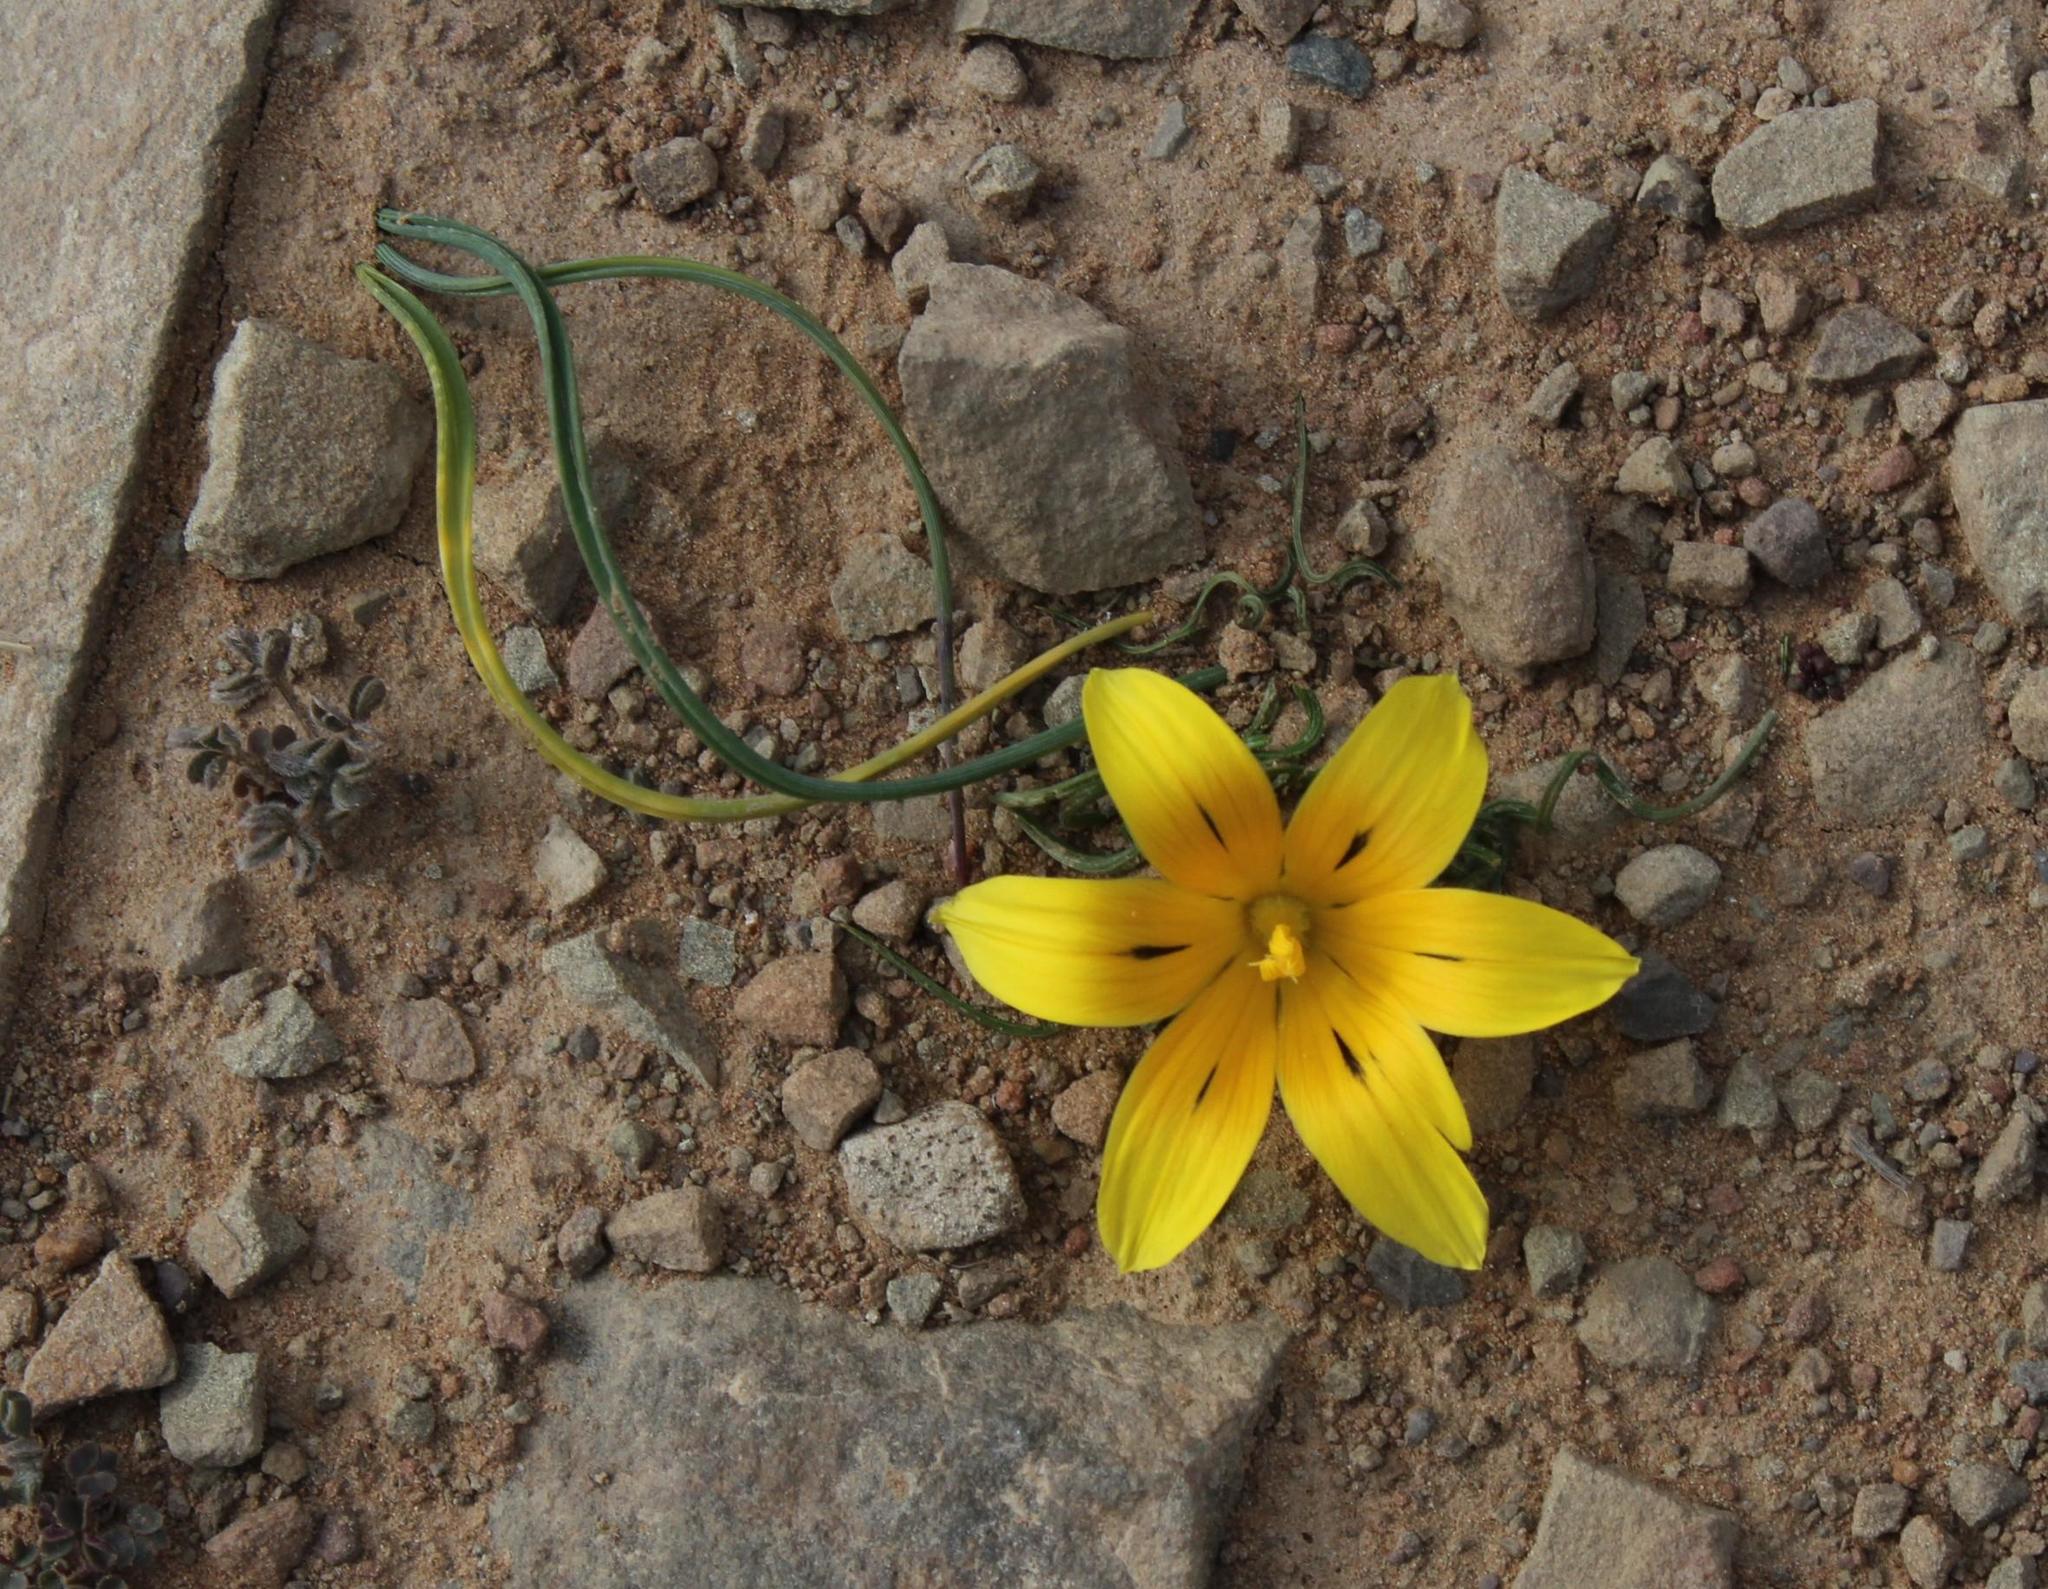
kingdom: Plantae
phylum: Tracheophyta
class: Liliopsida
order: Asparagales
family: Iridaceae
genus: Romulea
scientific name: Romulea tortuosa
